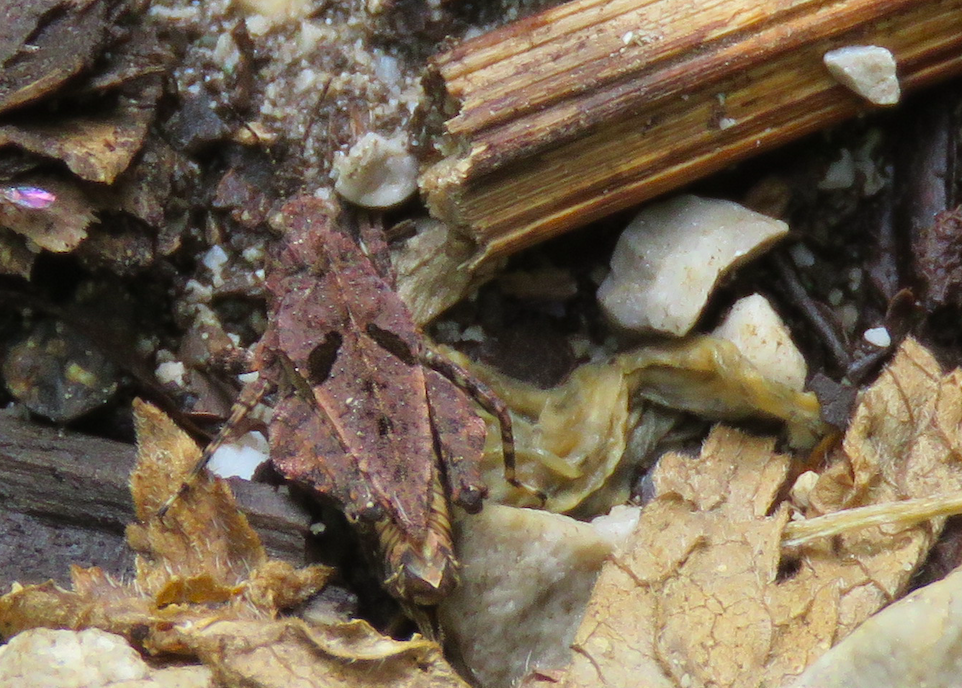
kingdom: Animalia
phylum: Arthropoda
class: Insecta
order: Orthoptera
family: Tetrigidae
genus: Tetrix
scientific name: Tetrix transsylvanica
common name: Transsylvanian wingless groundhopper
